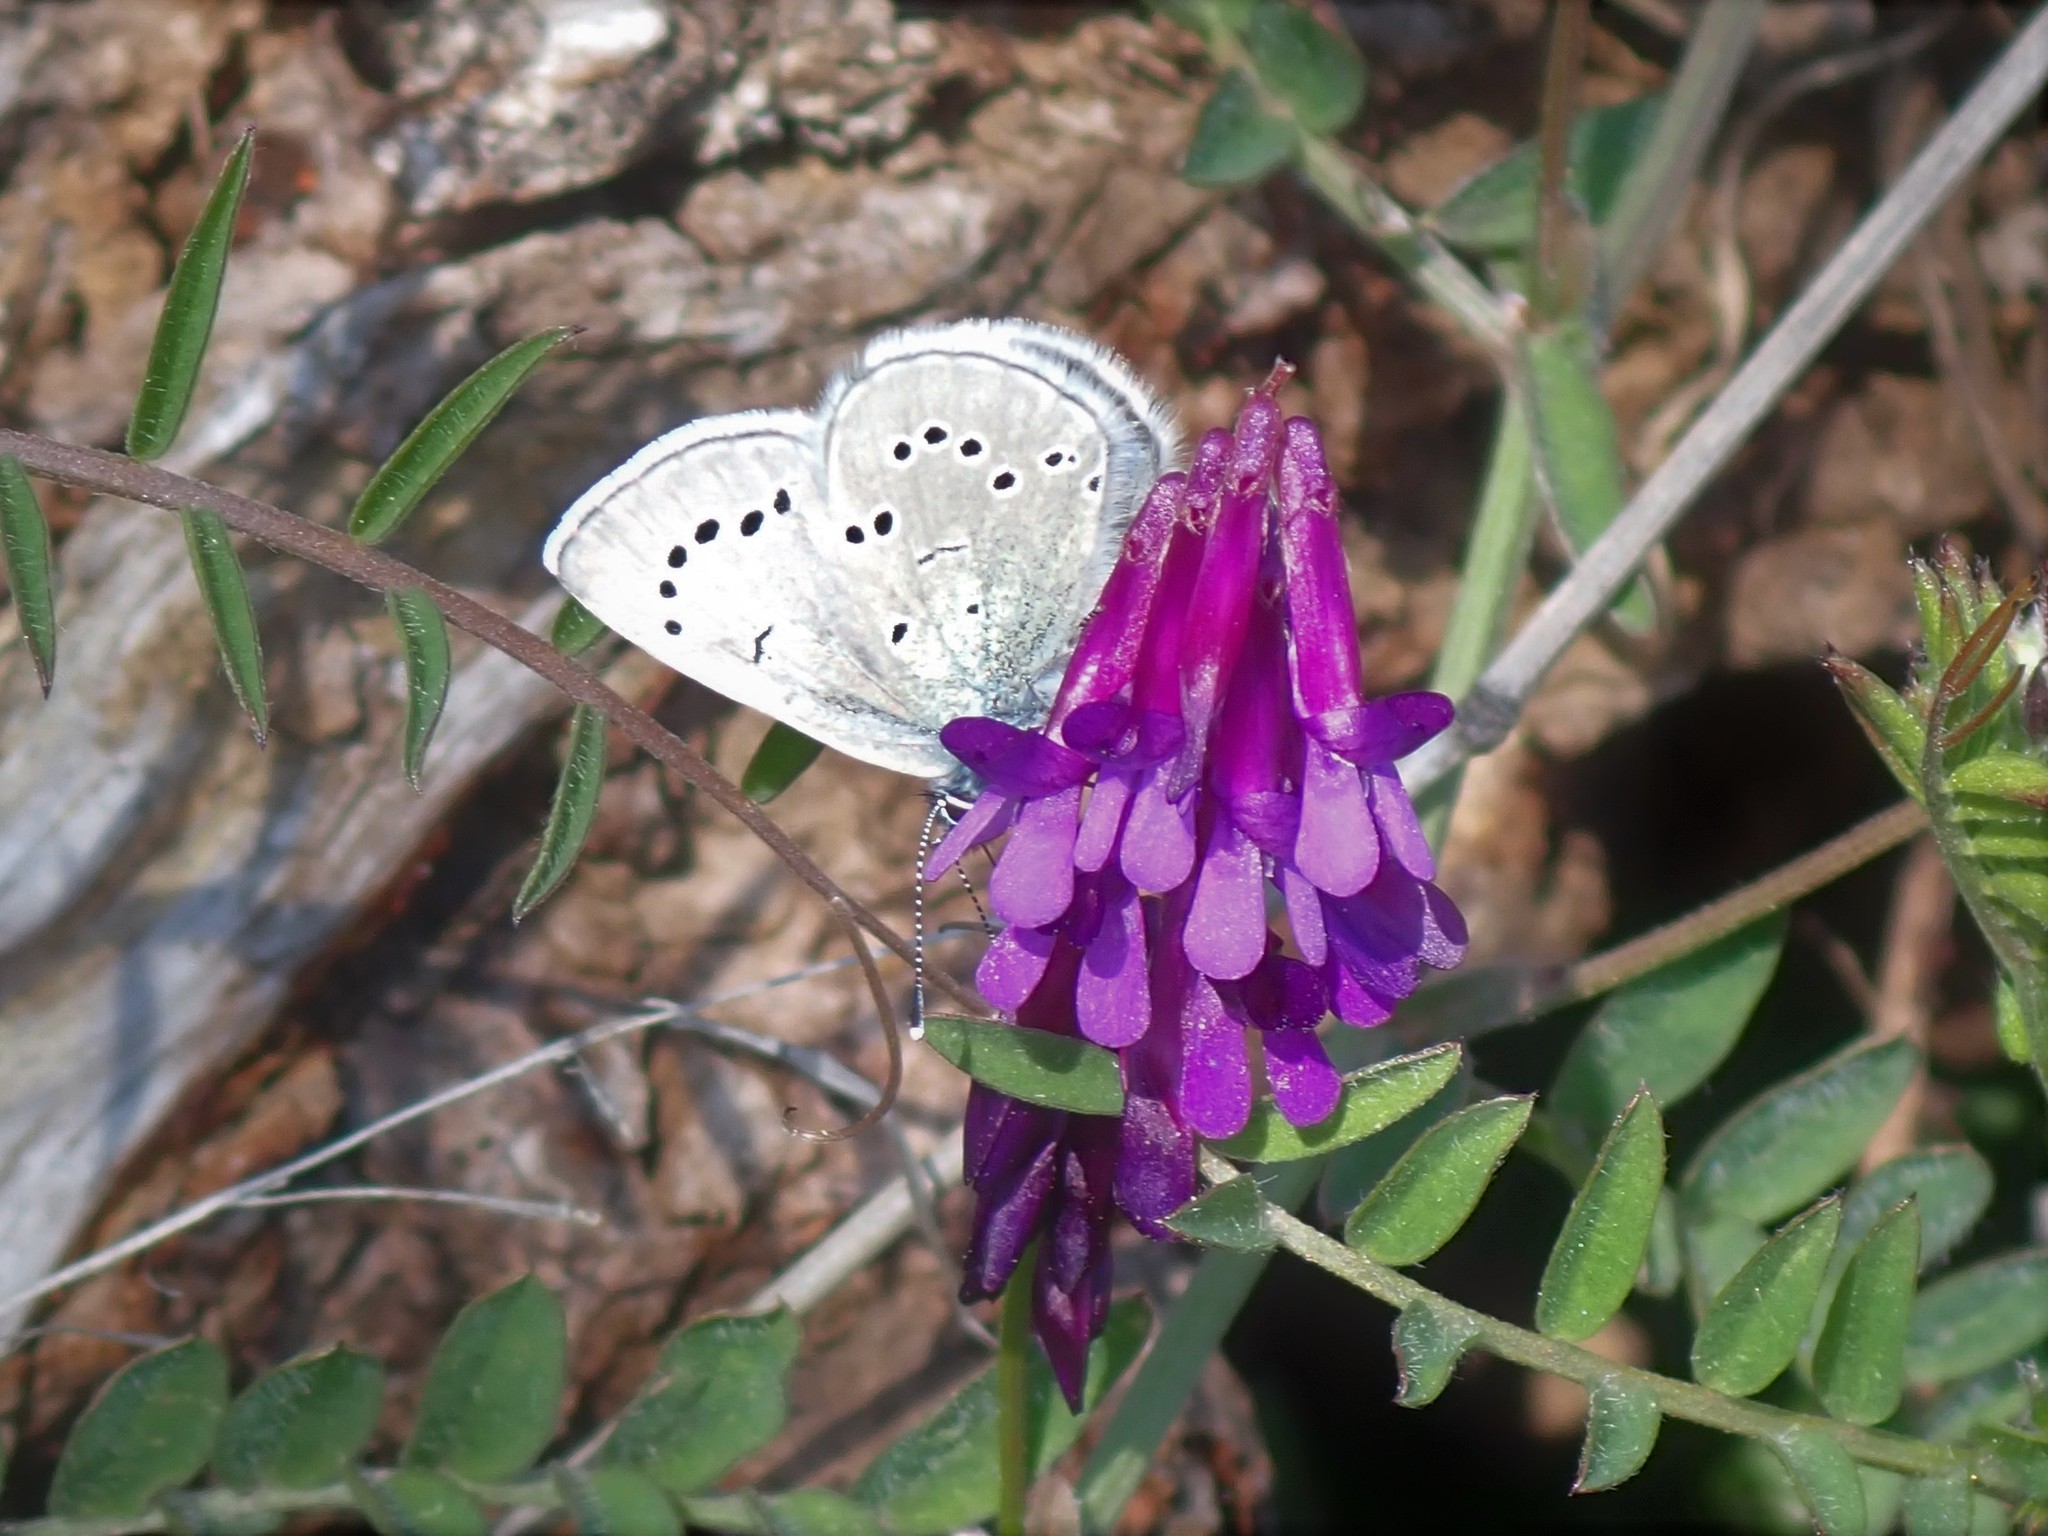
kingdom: Animalia
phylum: Arthropoda
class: Insecta
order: Lepidoptera
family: Lycaenidae
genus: Glaucopsyche
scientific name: Glaucopsyche lygdamus
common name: Silvery blue
